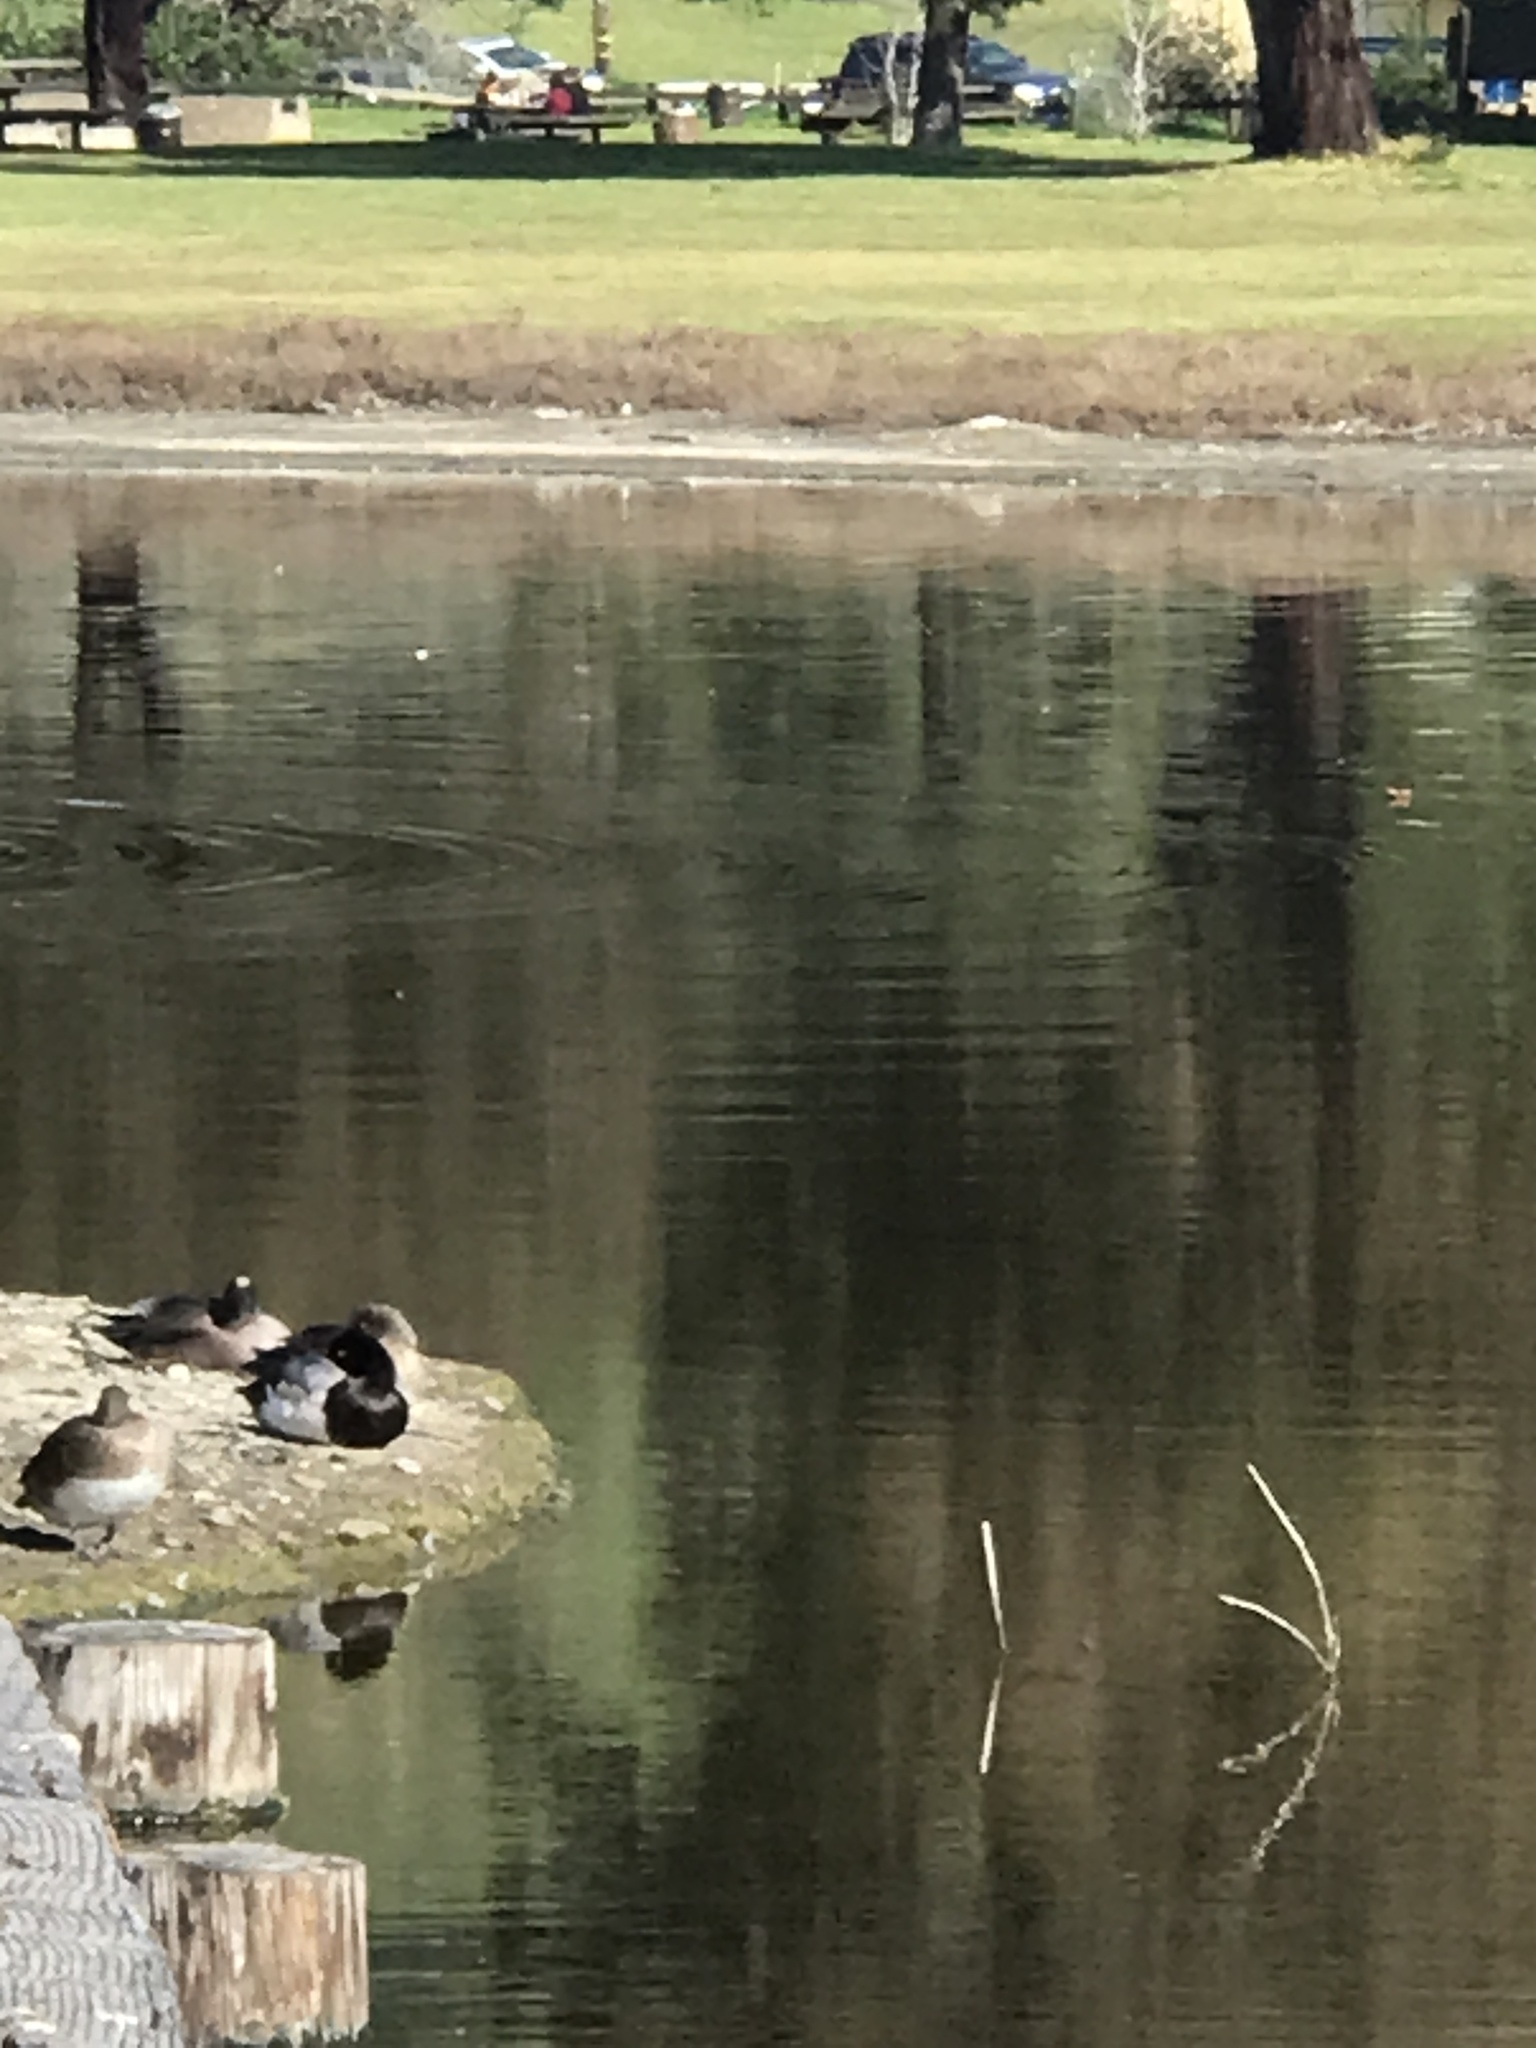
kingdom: Animalia
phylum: Chordata
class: Aves
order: Anseriformes
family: Anatidae
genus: Mareca
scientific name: Mareca americana
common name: American wigeon
